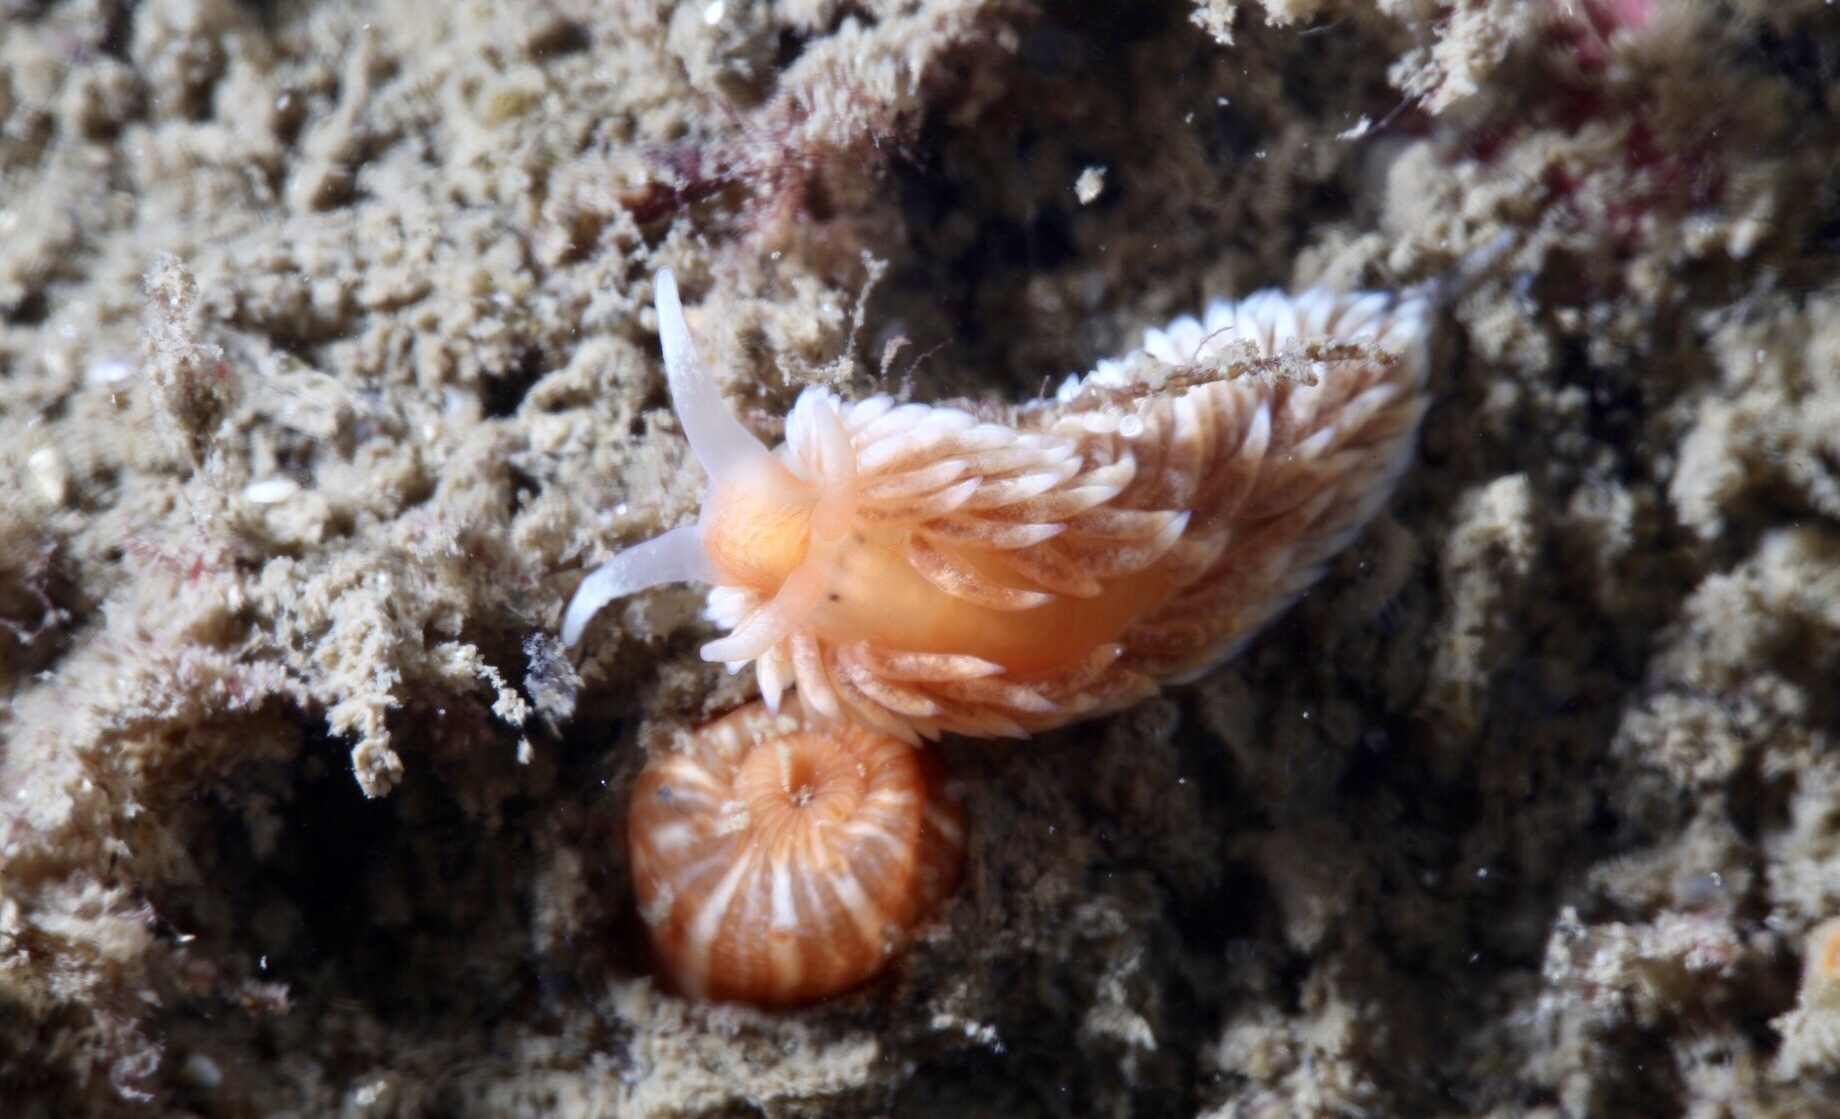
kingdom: Animalia
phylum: Mollusca
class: Gastropoda
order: Nudibranchia
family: Aeolidiidae
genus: Aeolidiella
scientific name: Aeolidiella glauca
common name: Orange-brown aeolid
